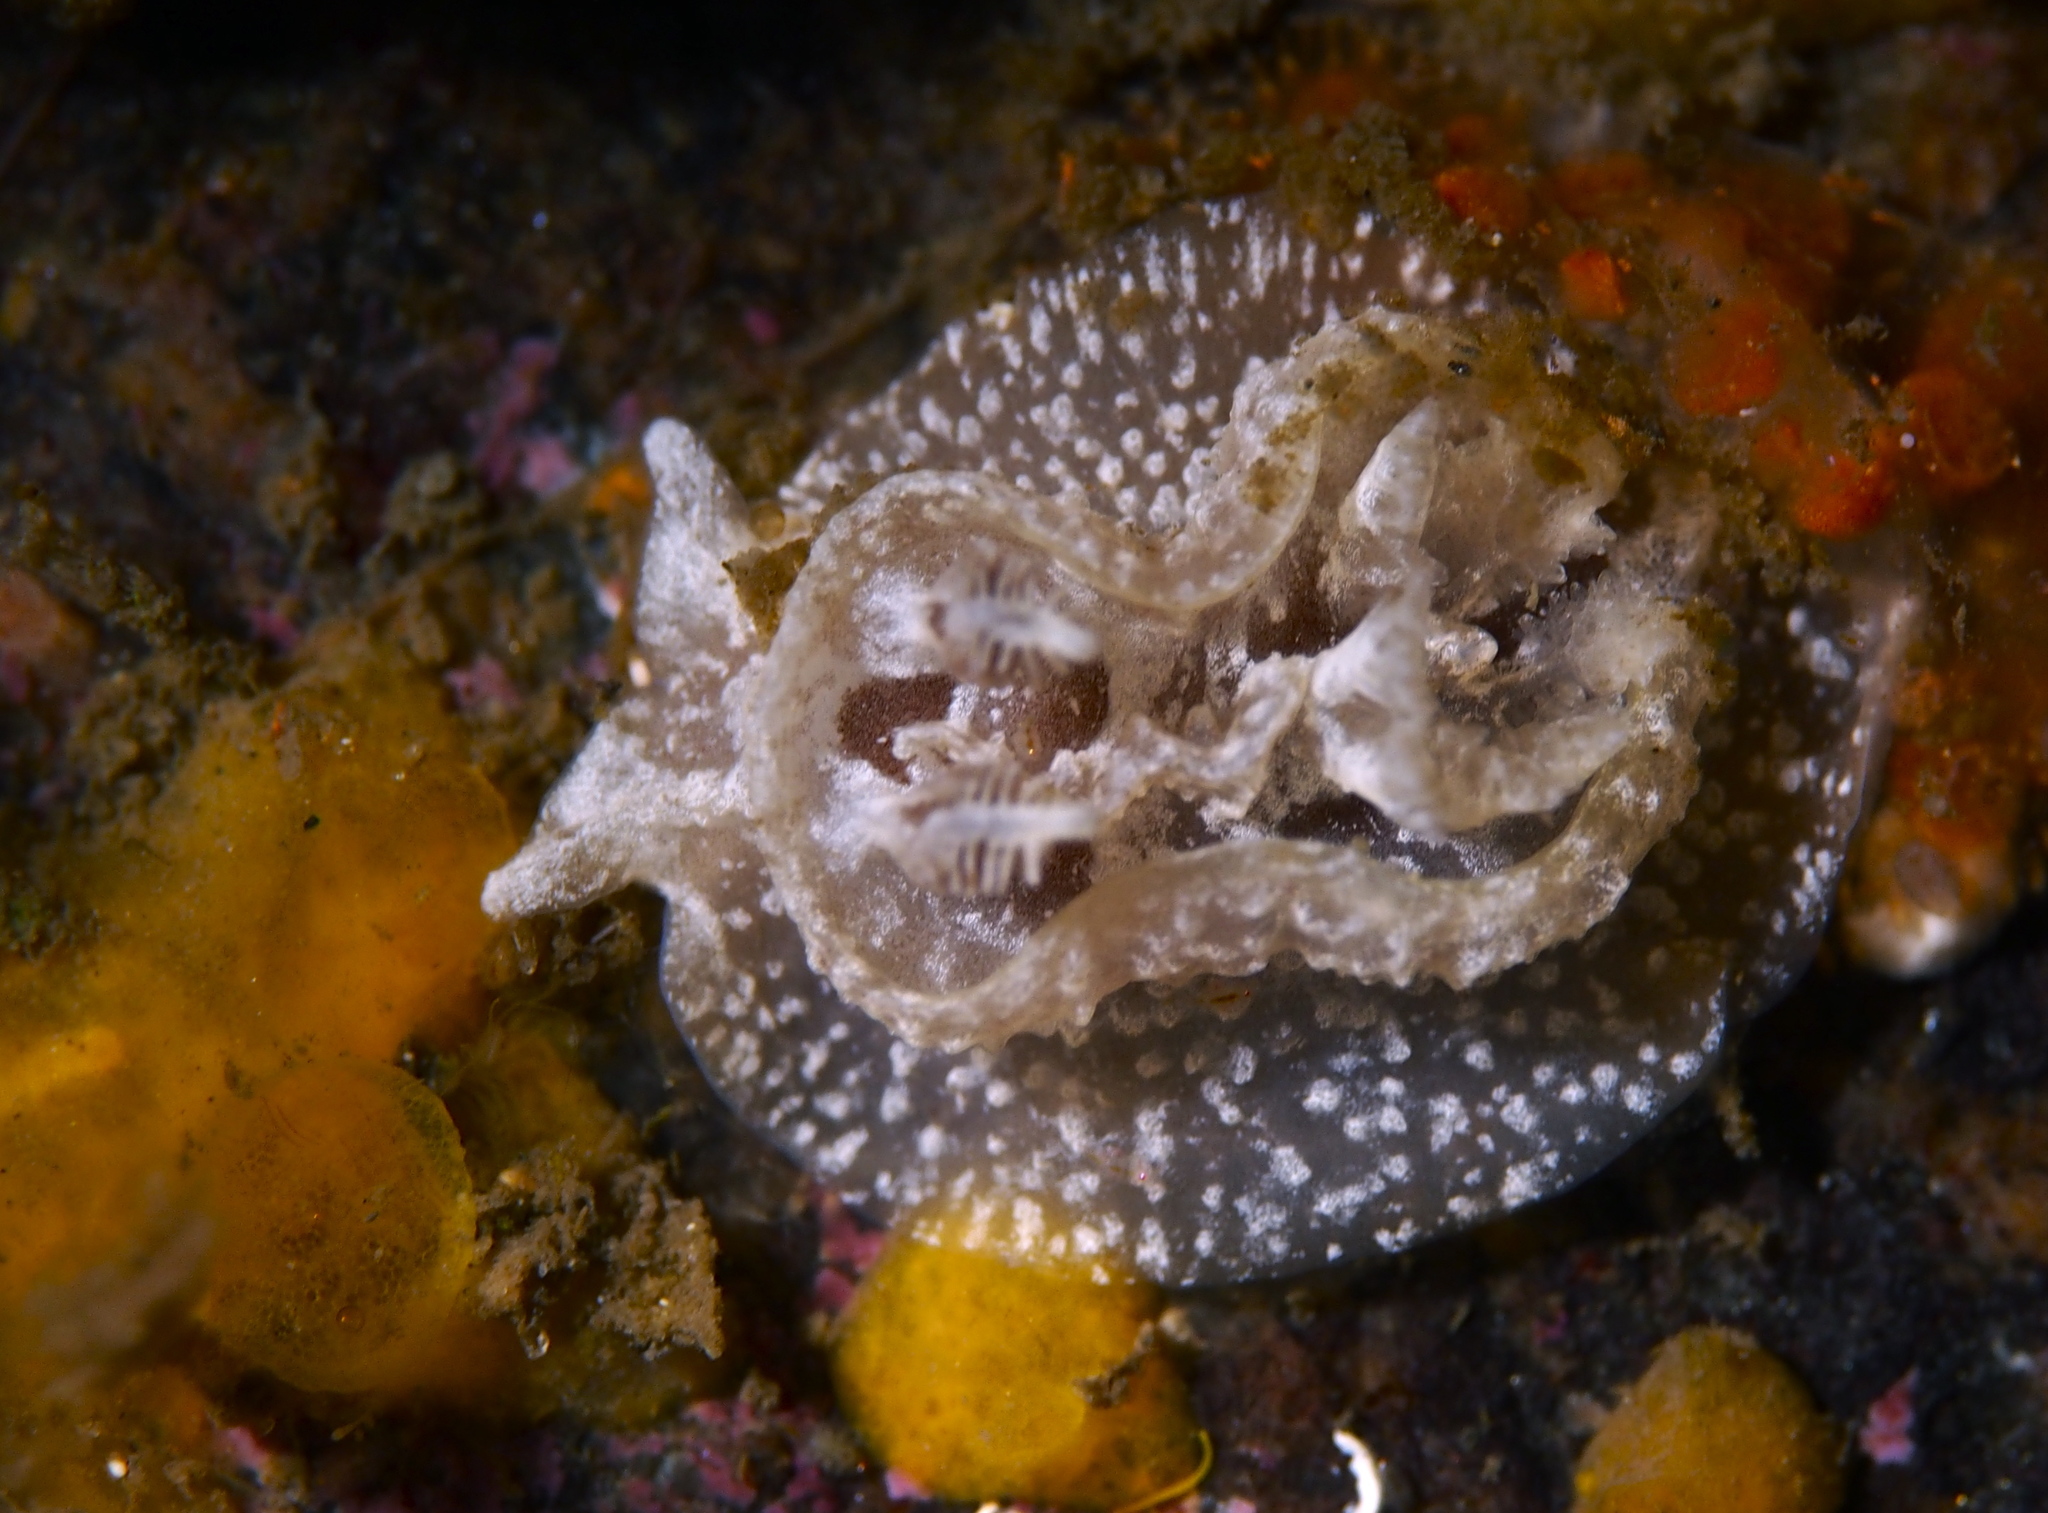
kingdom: Animalia
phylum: Mollusca
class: Gastropoda
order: Nudibranchia
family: Goniodorididae
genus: Pelagella
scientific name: Pelagella castanea
